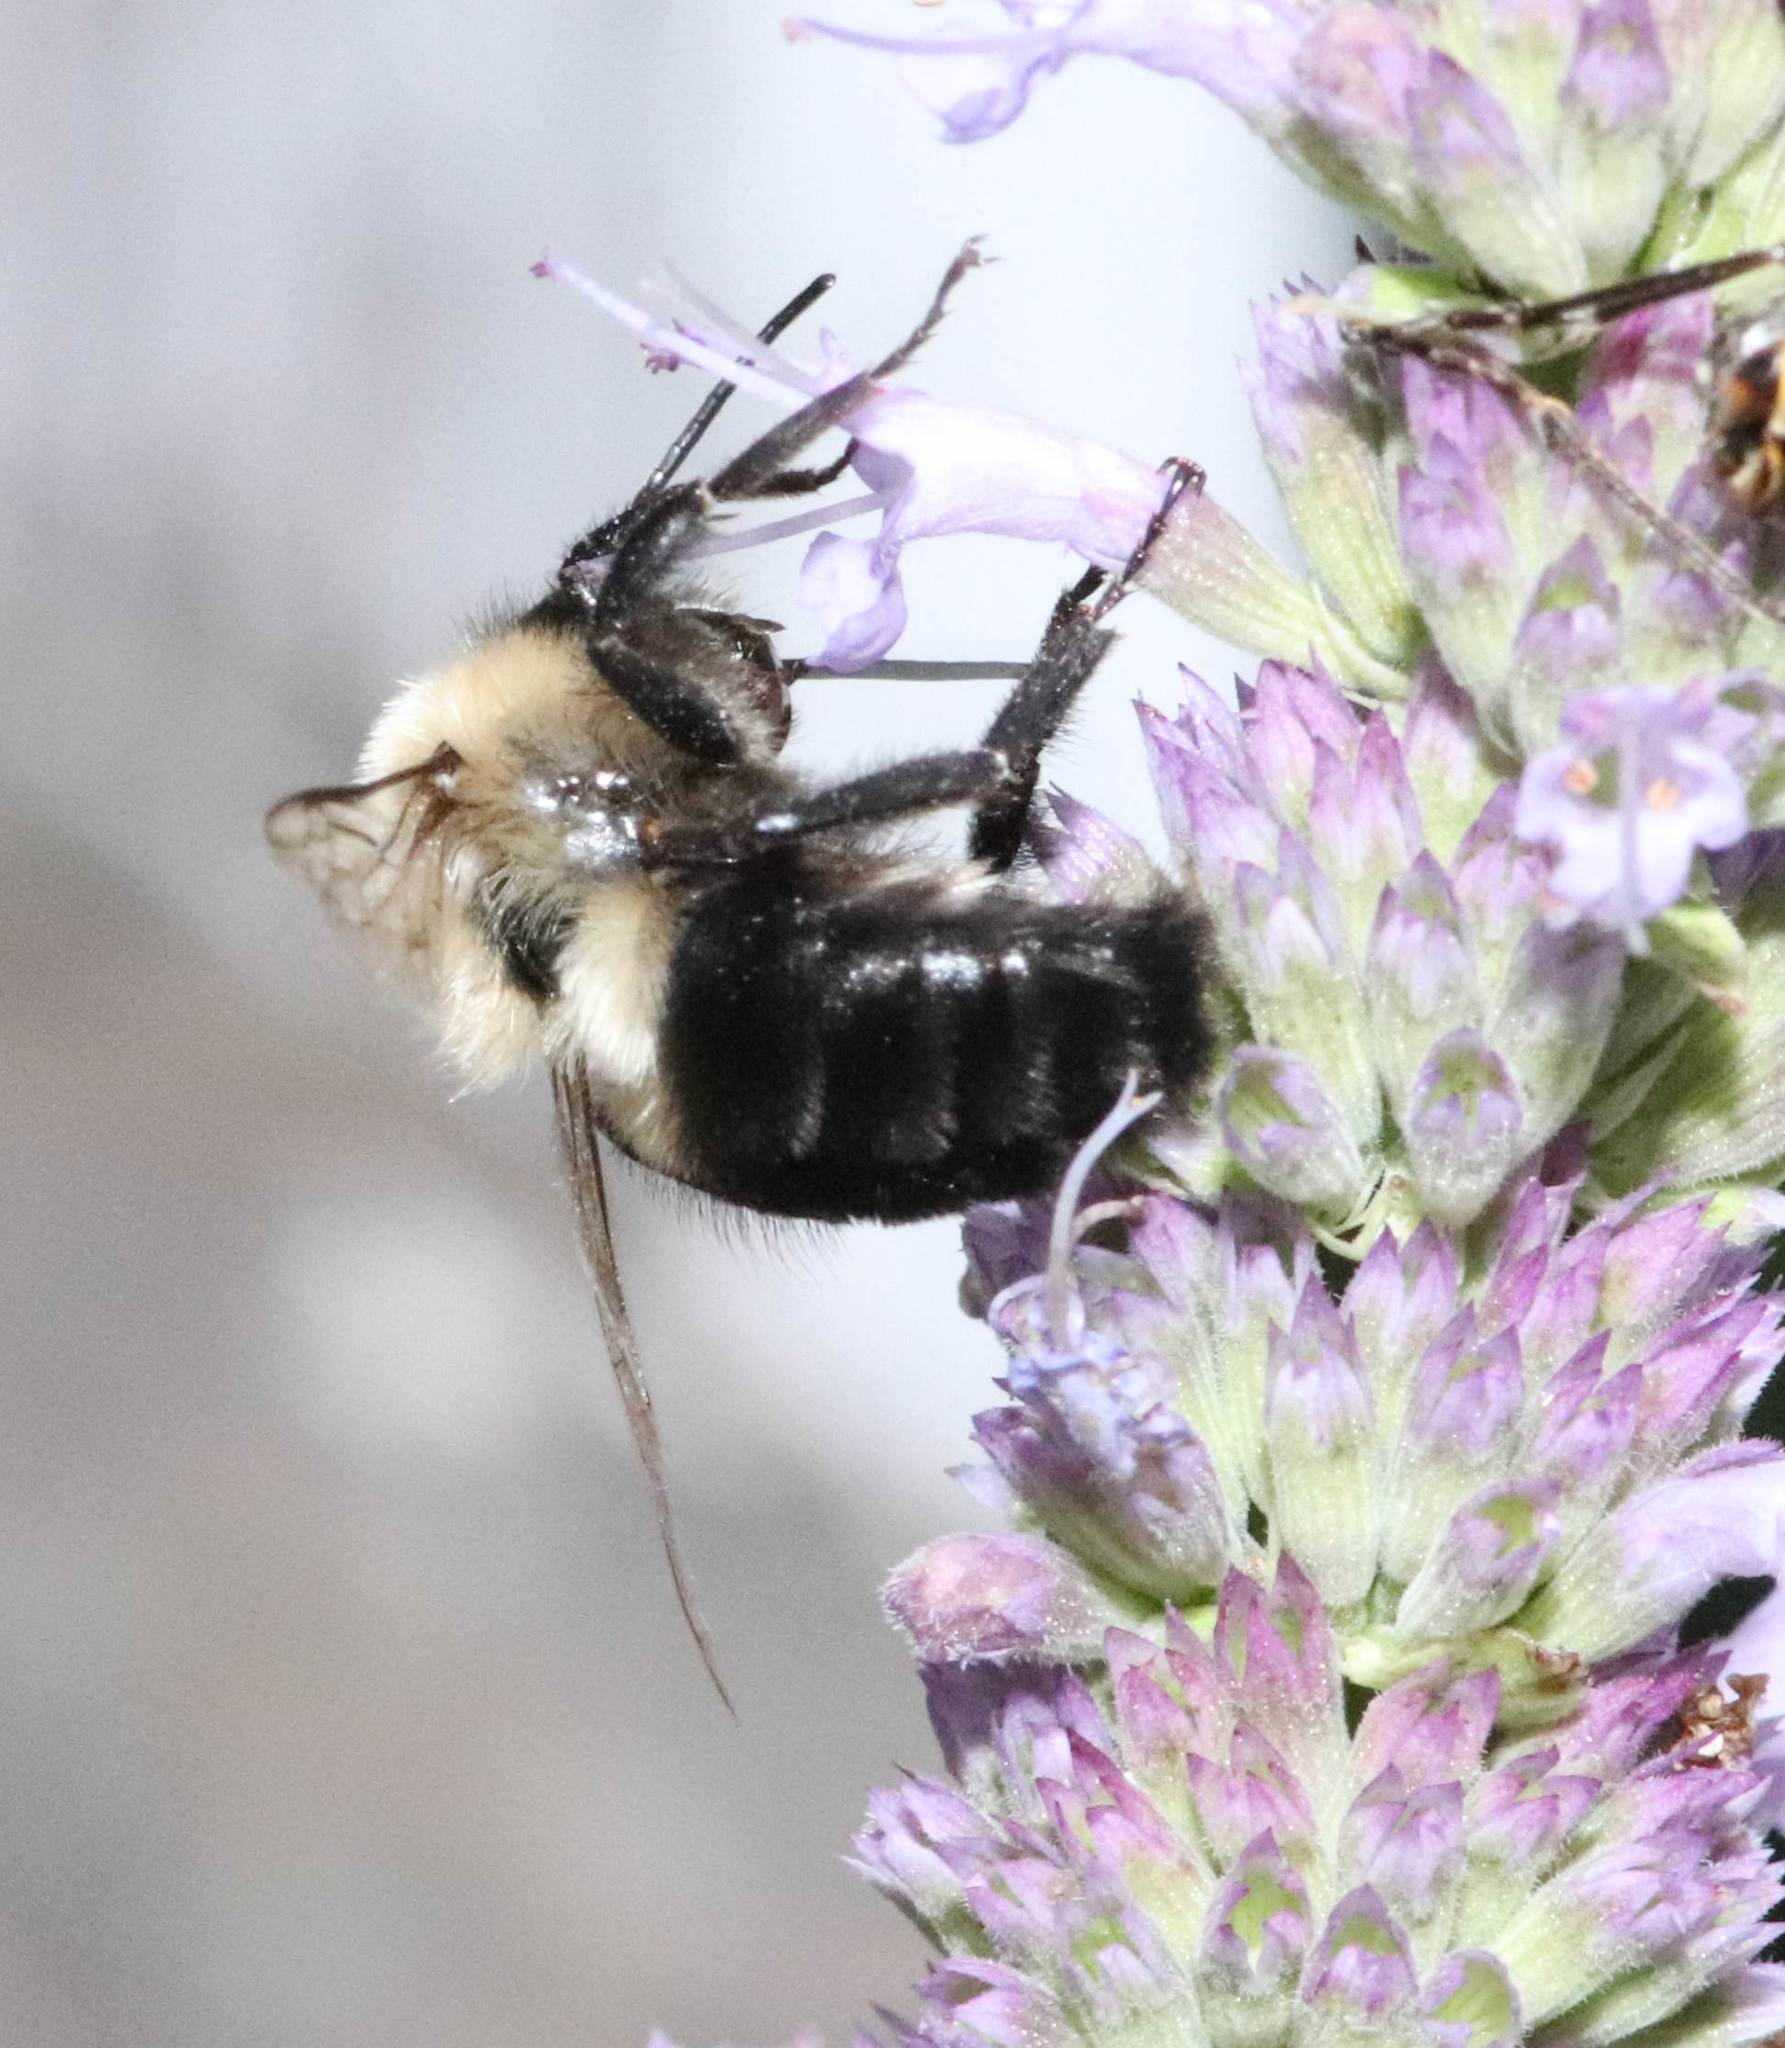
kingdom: Animalia
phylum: Arthropoda
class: Insecta
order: Hymenoptera
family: Apidae
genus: Bombus
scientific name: Bombus impatiens
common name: Common eastern bumble bee
